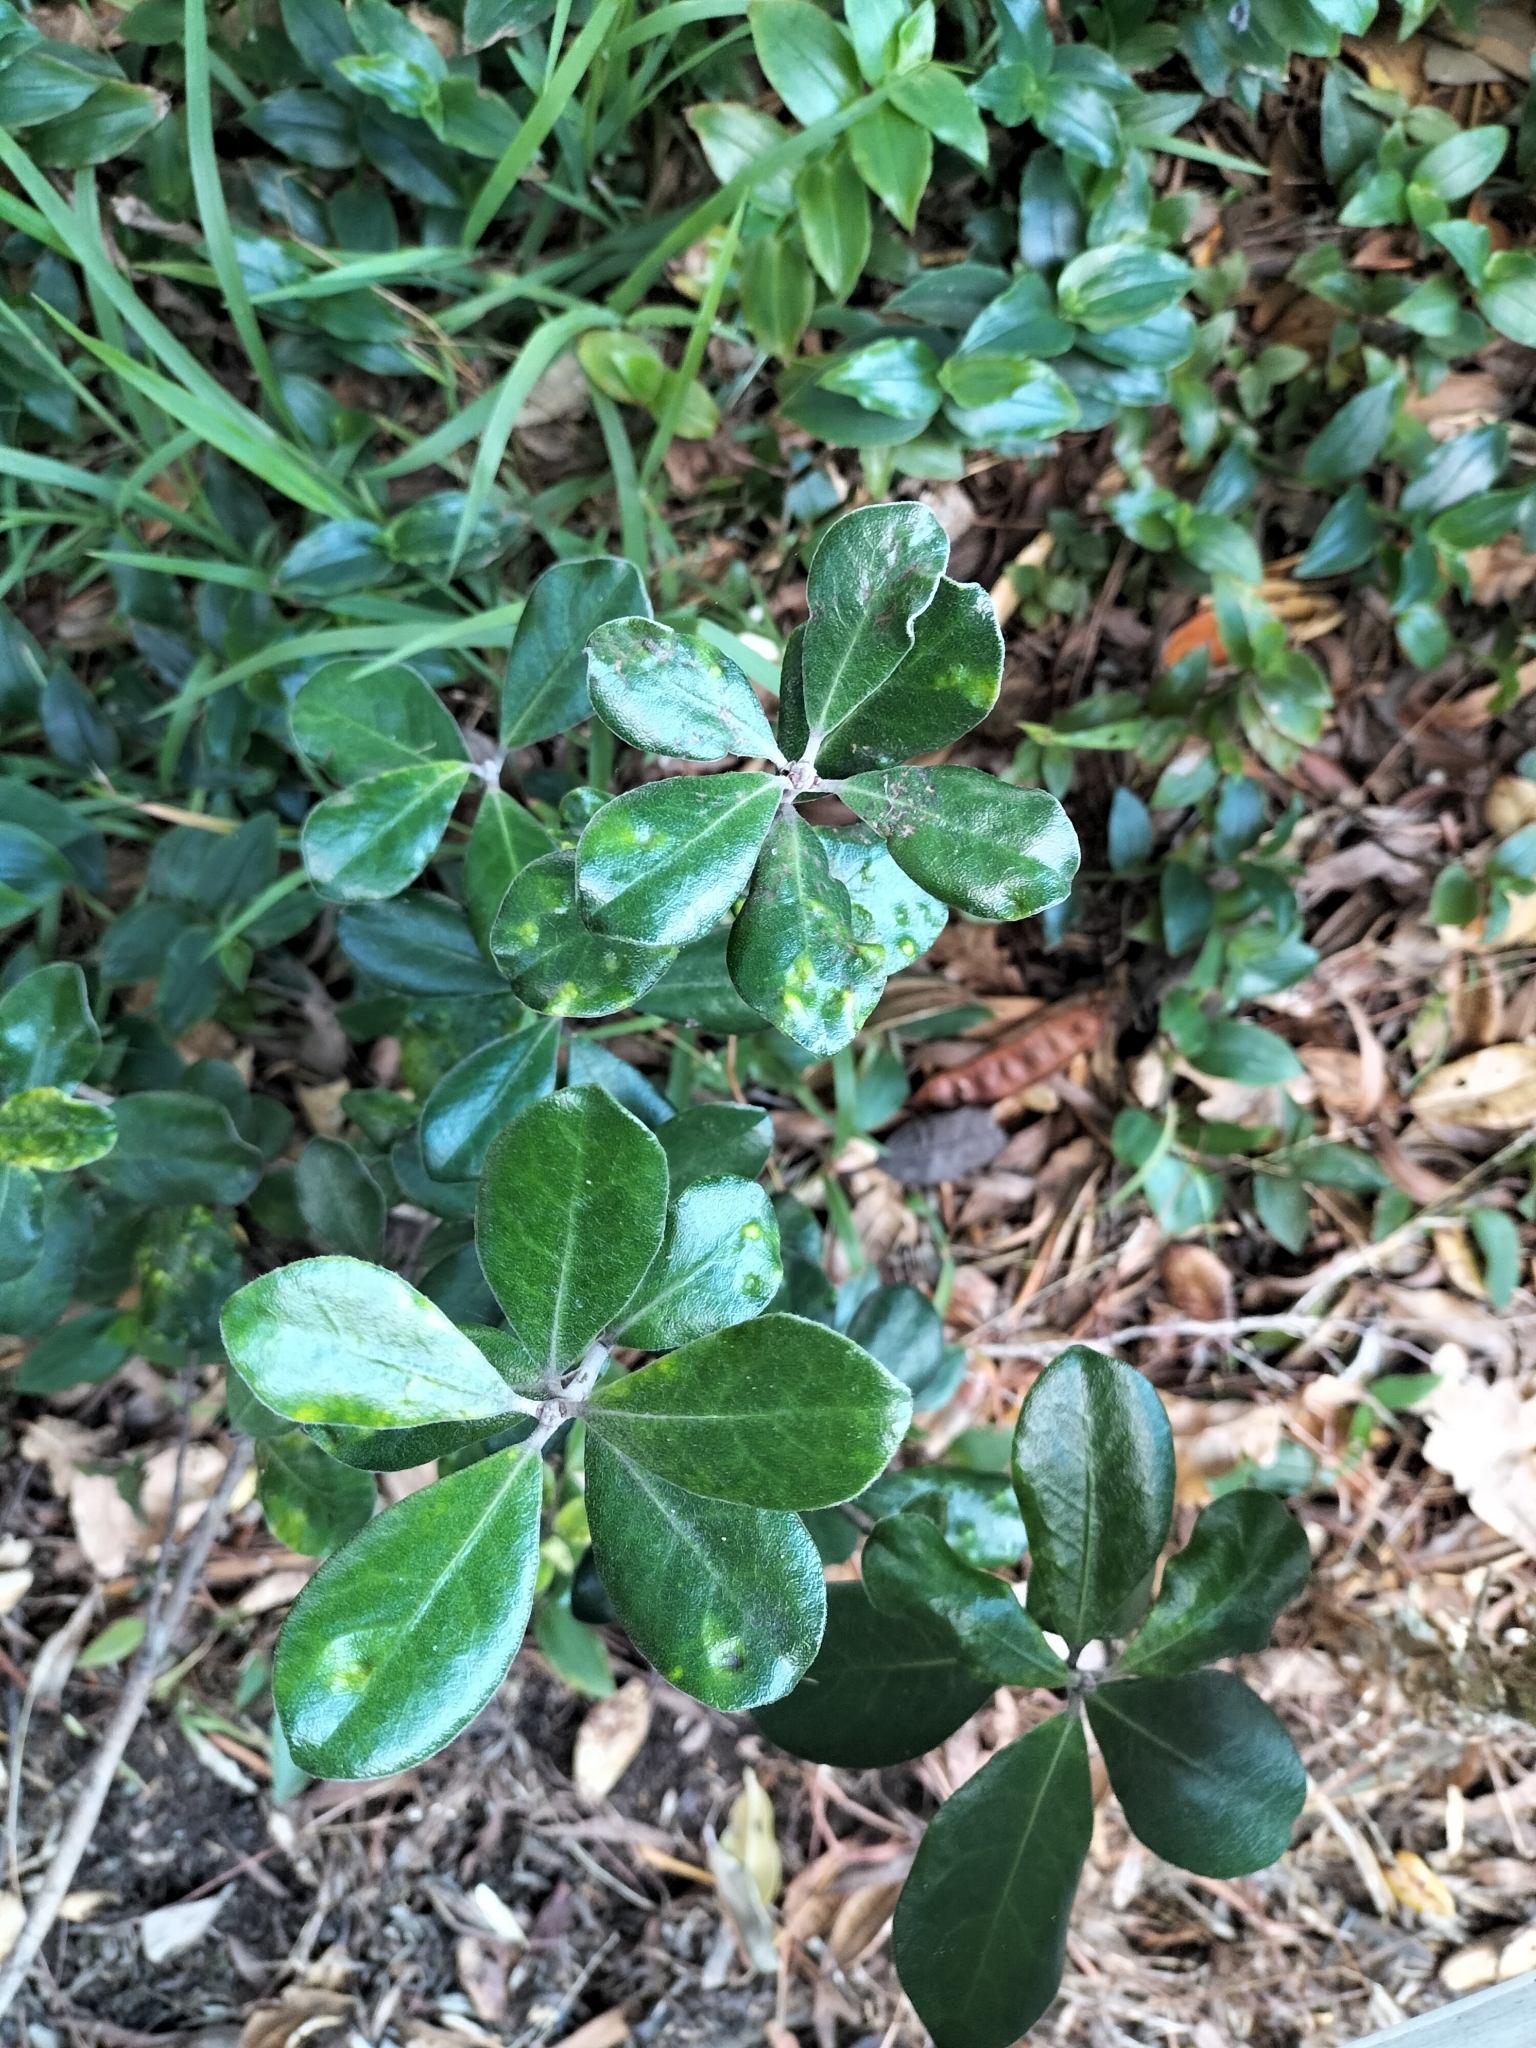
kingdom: Plantae
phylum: Tracheophyta
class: Magnoliopsida
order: Apiales
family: Pittosporaceae
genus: Pittosporum
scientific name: Pittosporum crassifolium
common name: Karo
